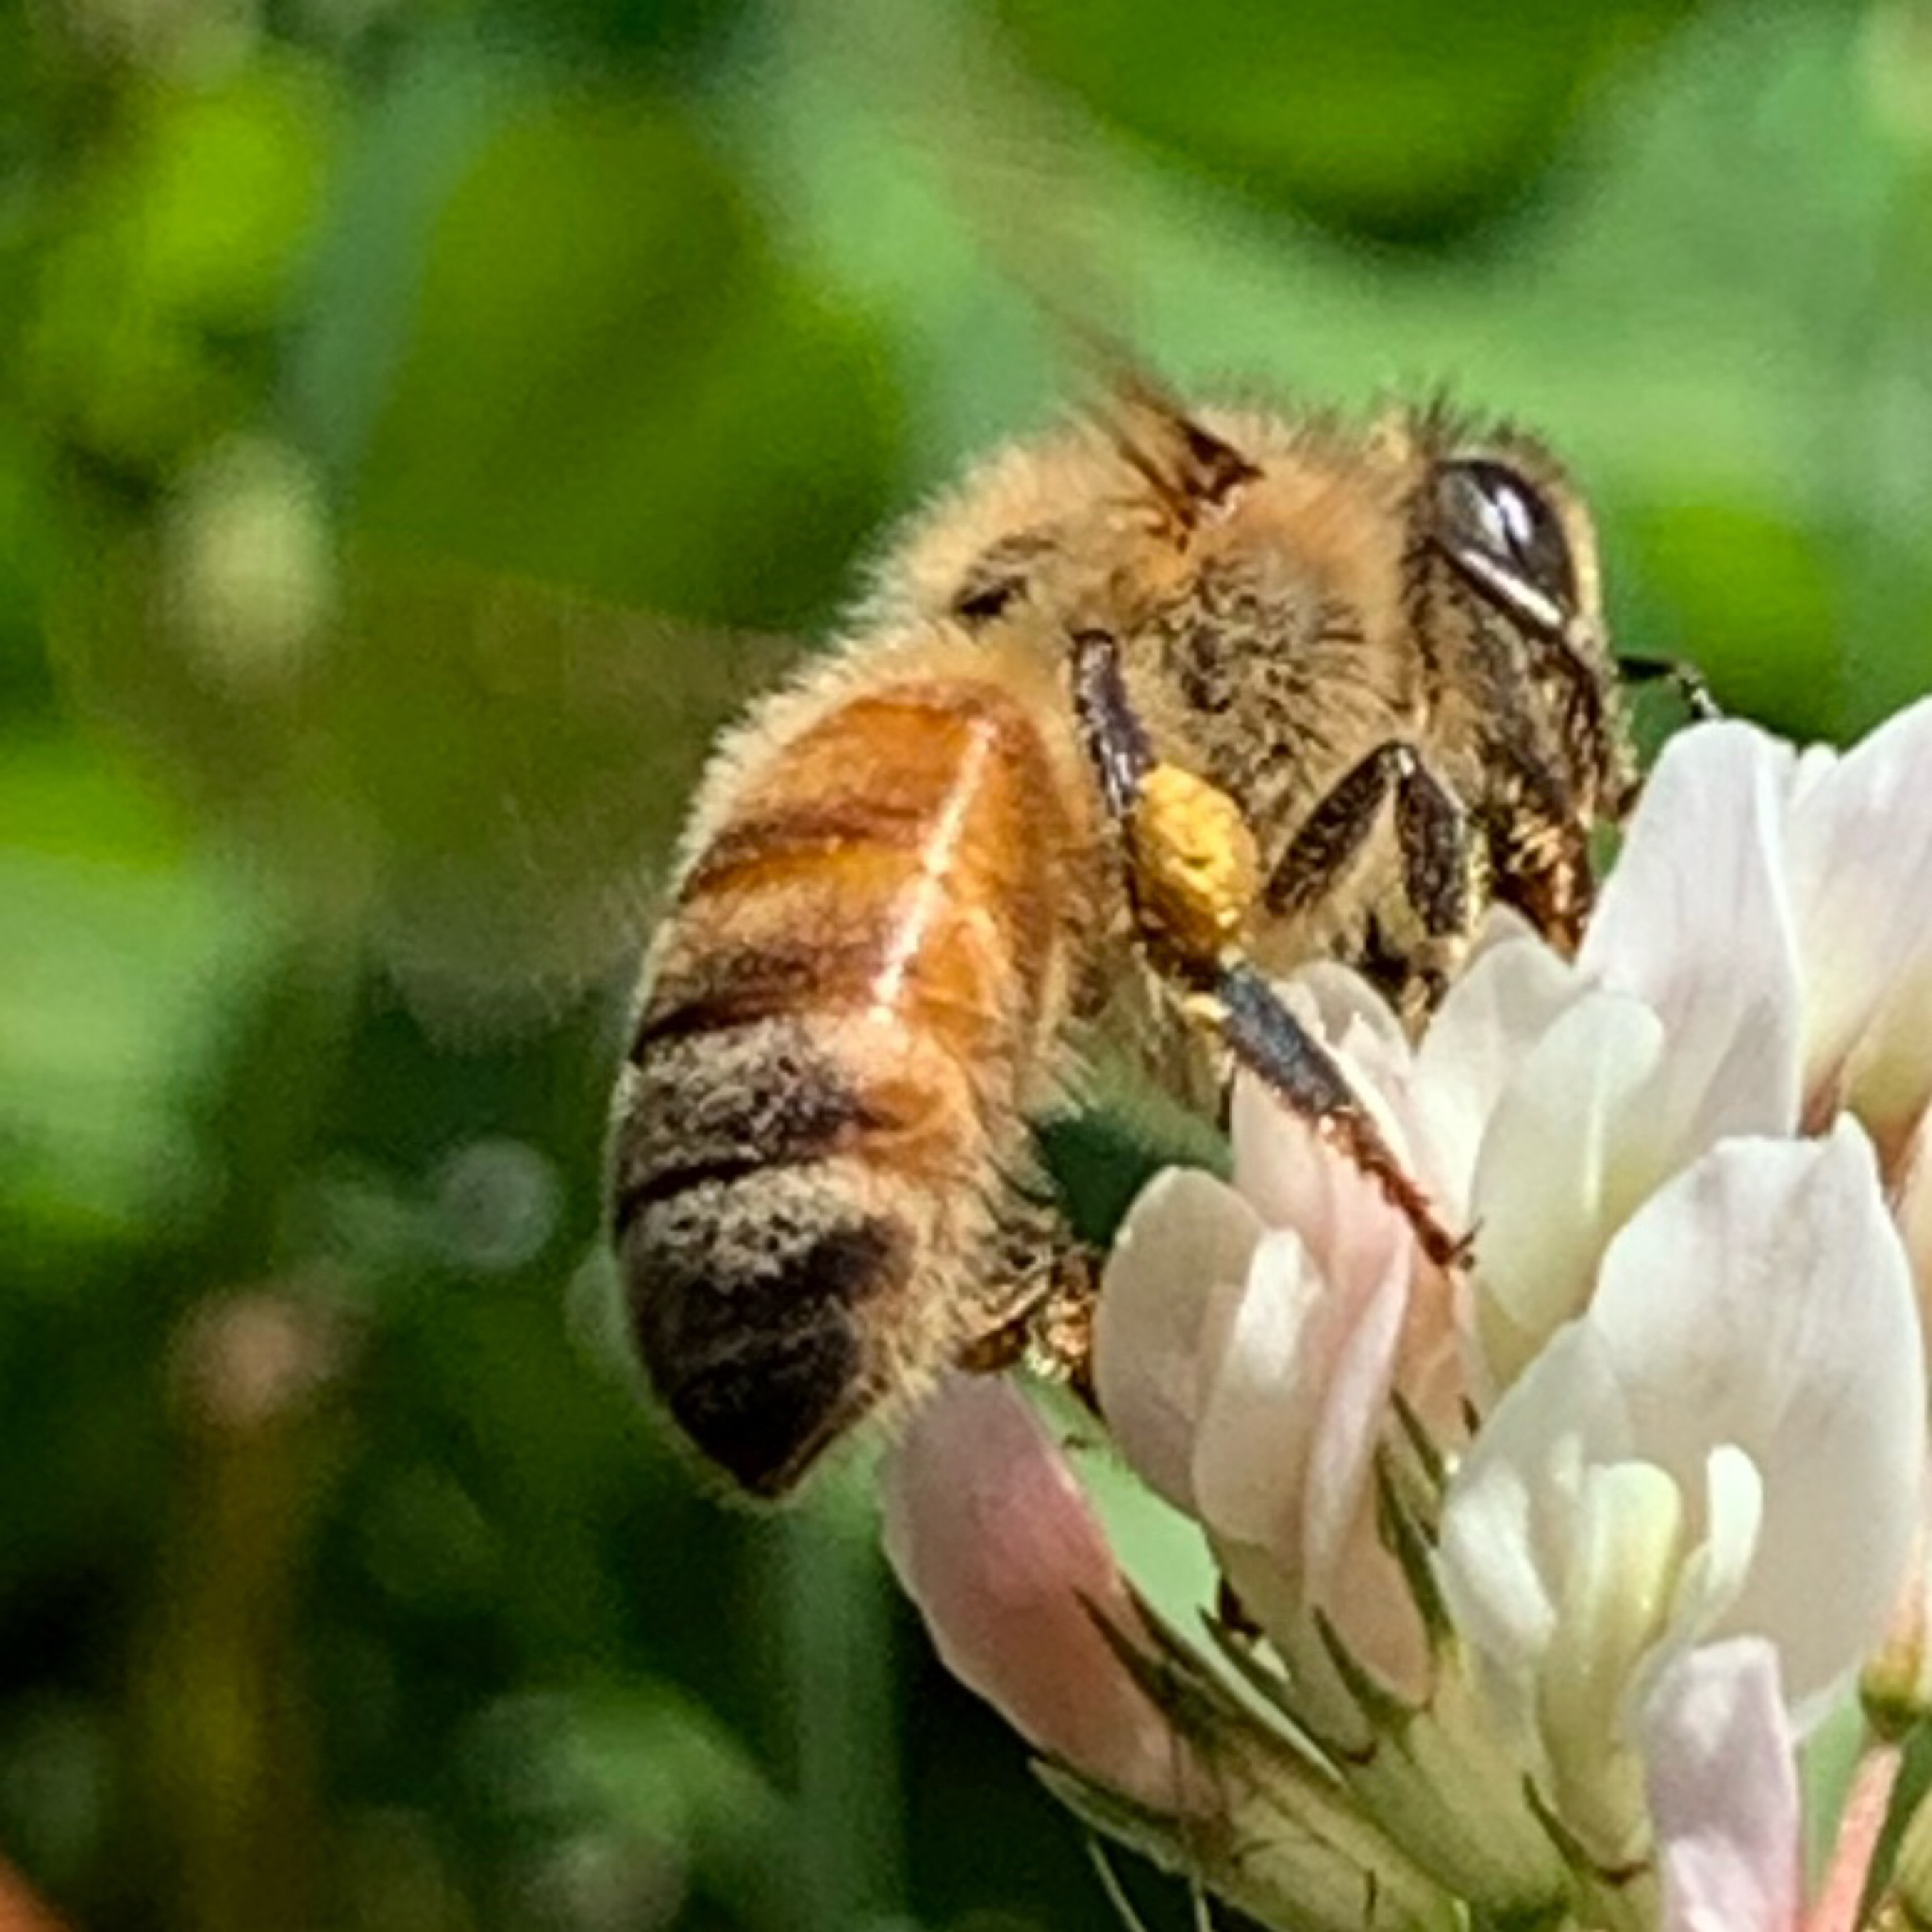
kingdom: Animalia
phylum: Arthropoda
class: Insecta
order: Hymenoptera
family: Apidae
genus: Apis
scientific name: Apis mellifera
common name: Honey bee
